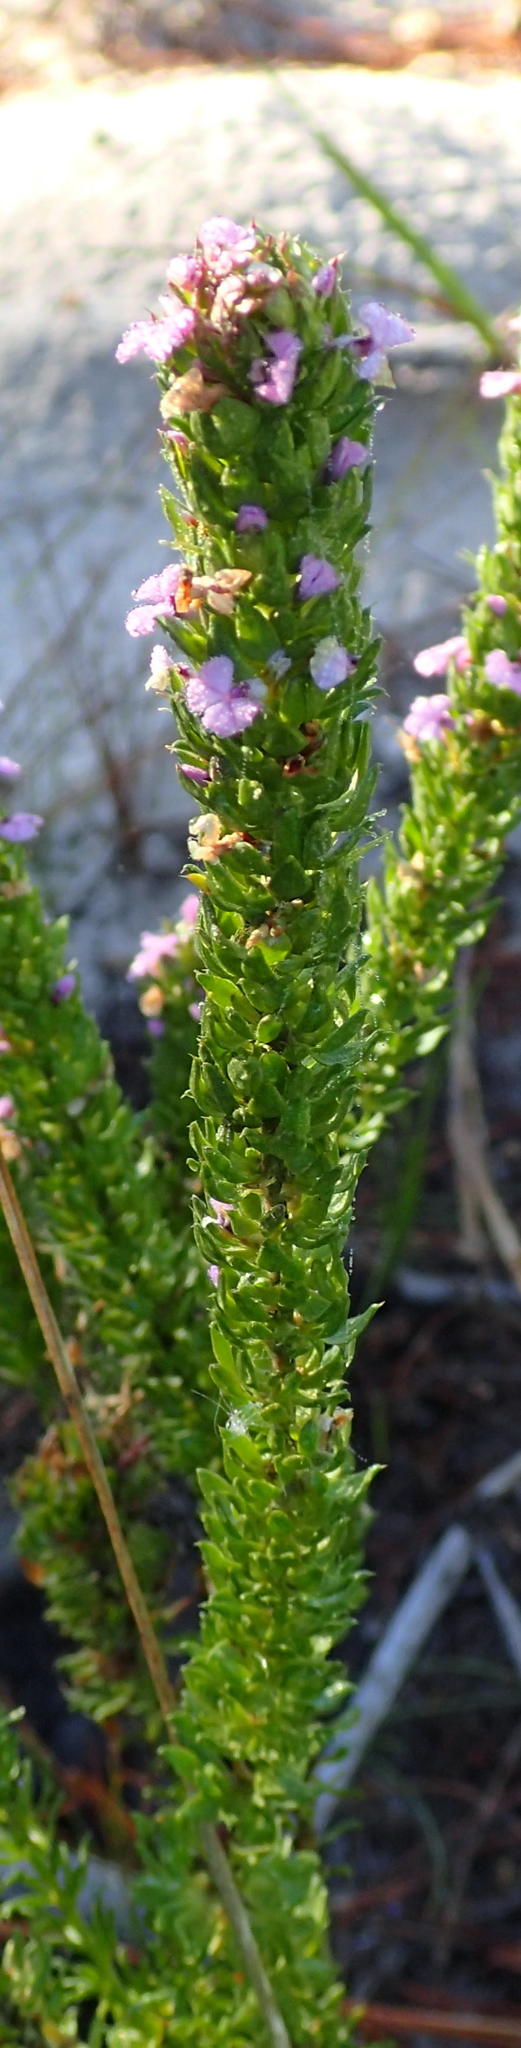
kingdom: Plantae
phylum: Tracheophyta
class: Magnoliopsida
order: Fabales
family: Polygalaceae
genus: Muraltia
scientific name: Muraltia alopecuroides
